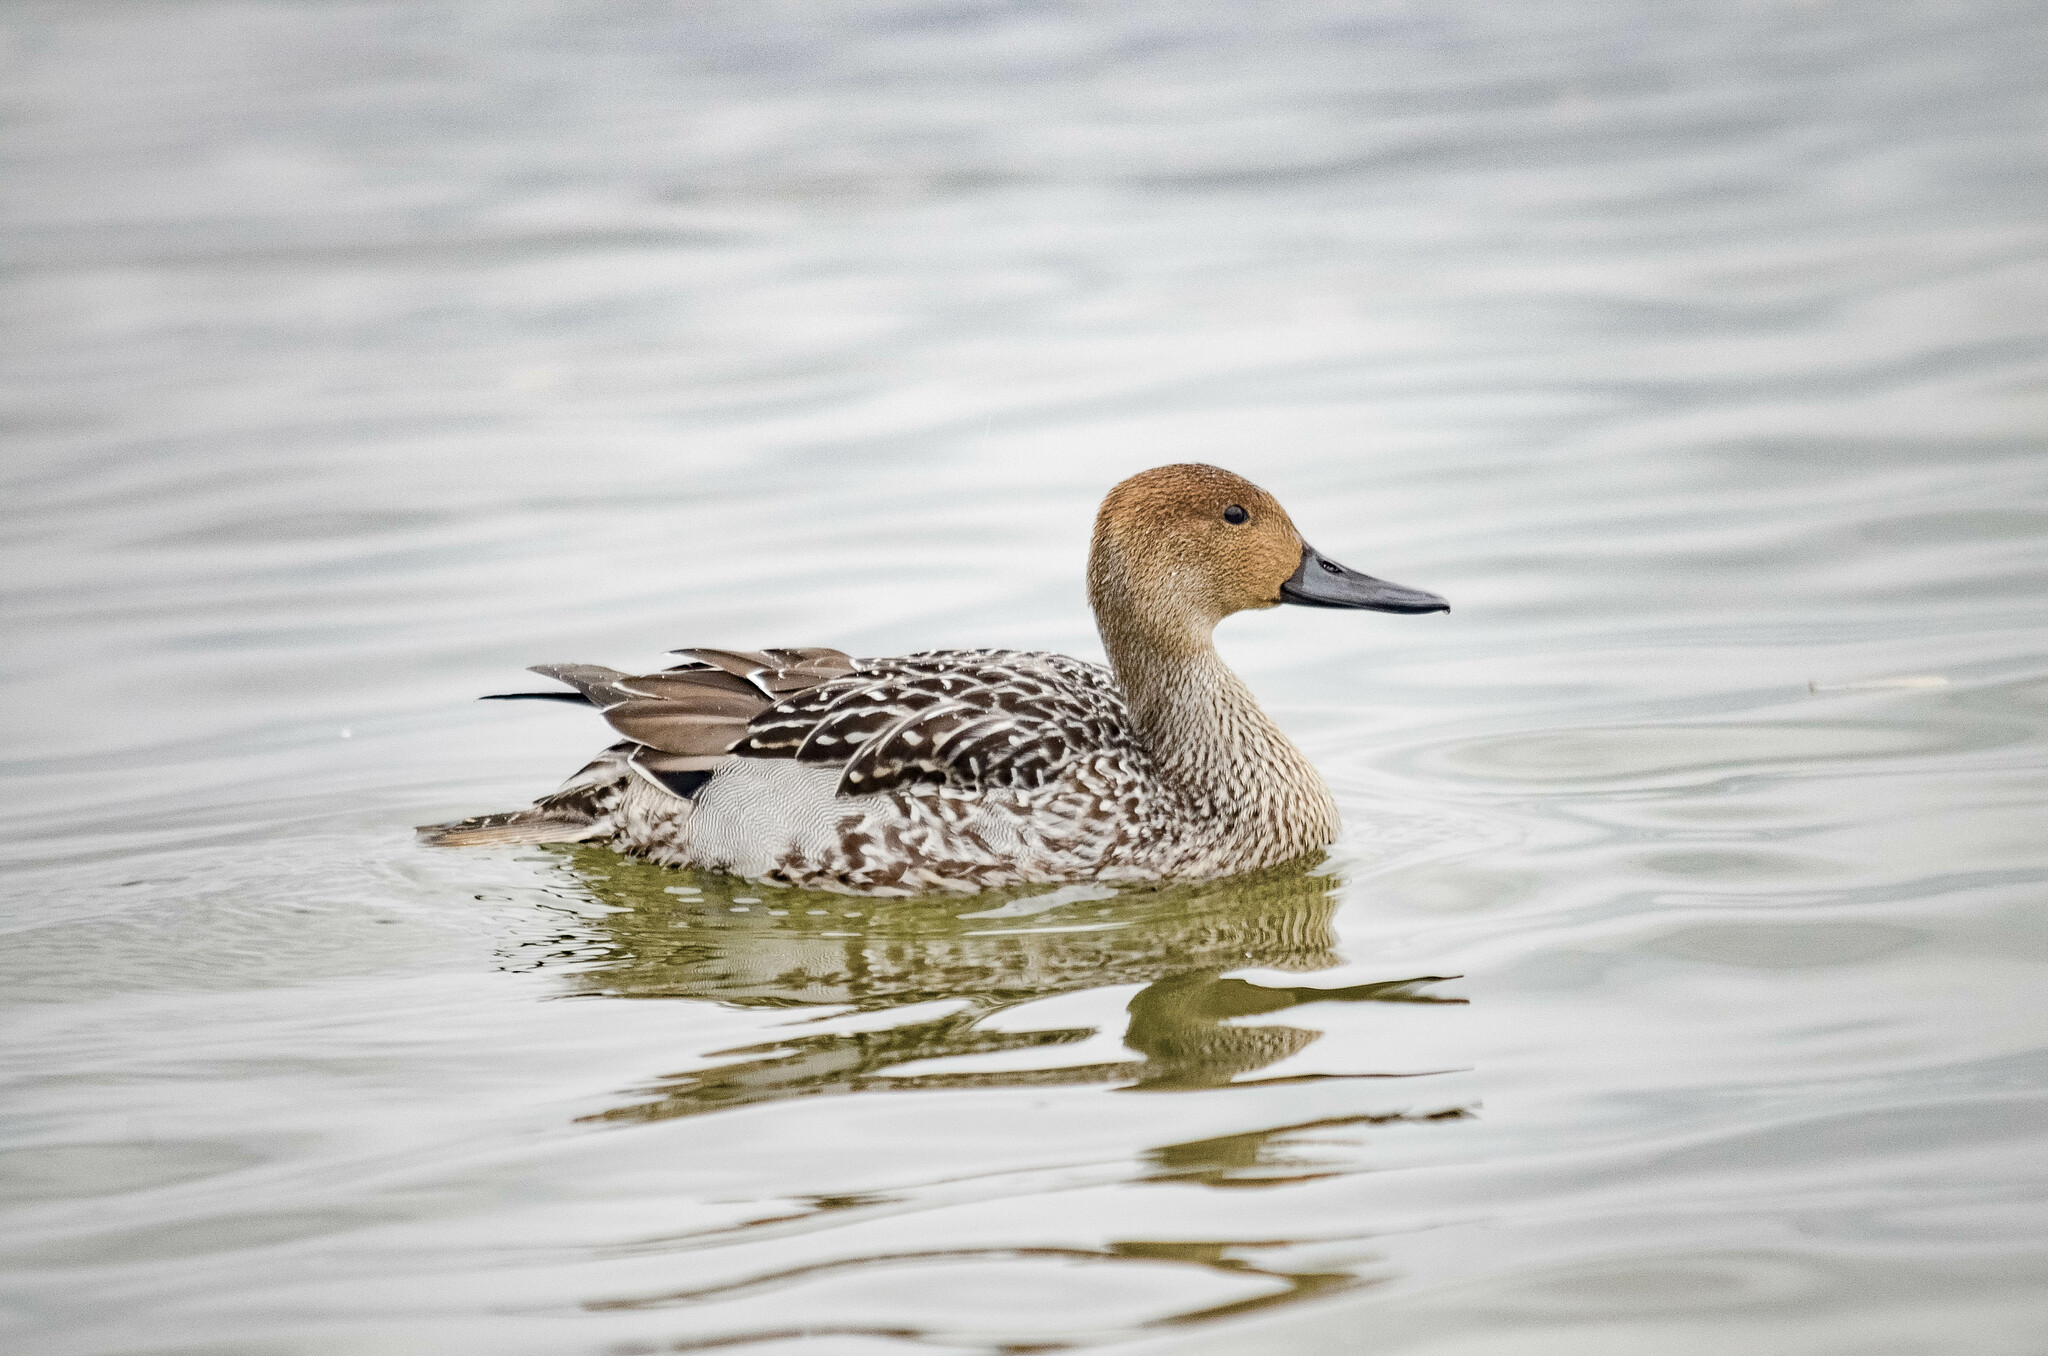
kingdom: Animalia
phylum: Chordata
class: Aves
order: Anseriformes
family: Anatidae
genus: Anas
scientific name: Anas acuta
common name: Northern pintail
